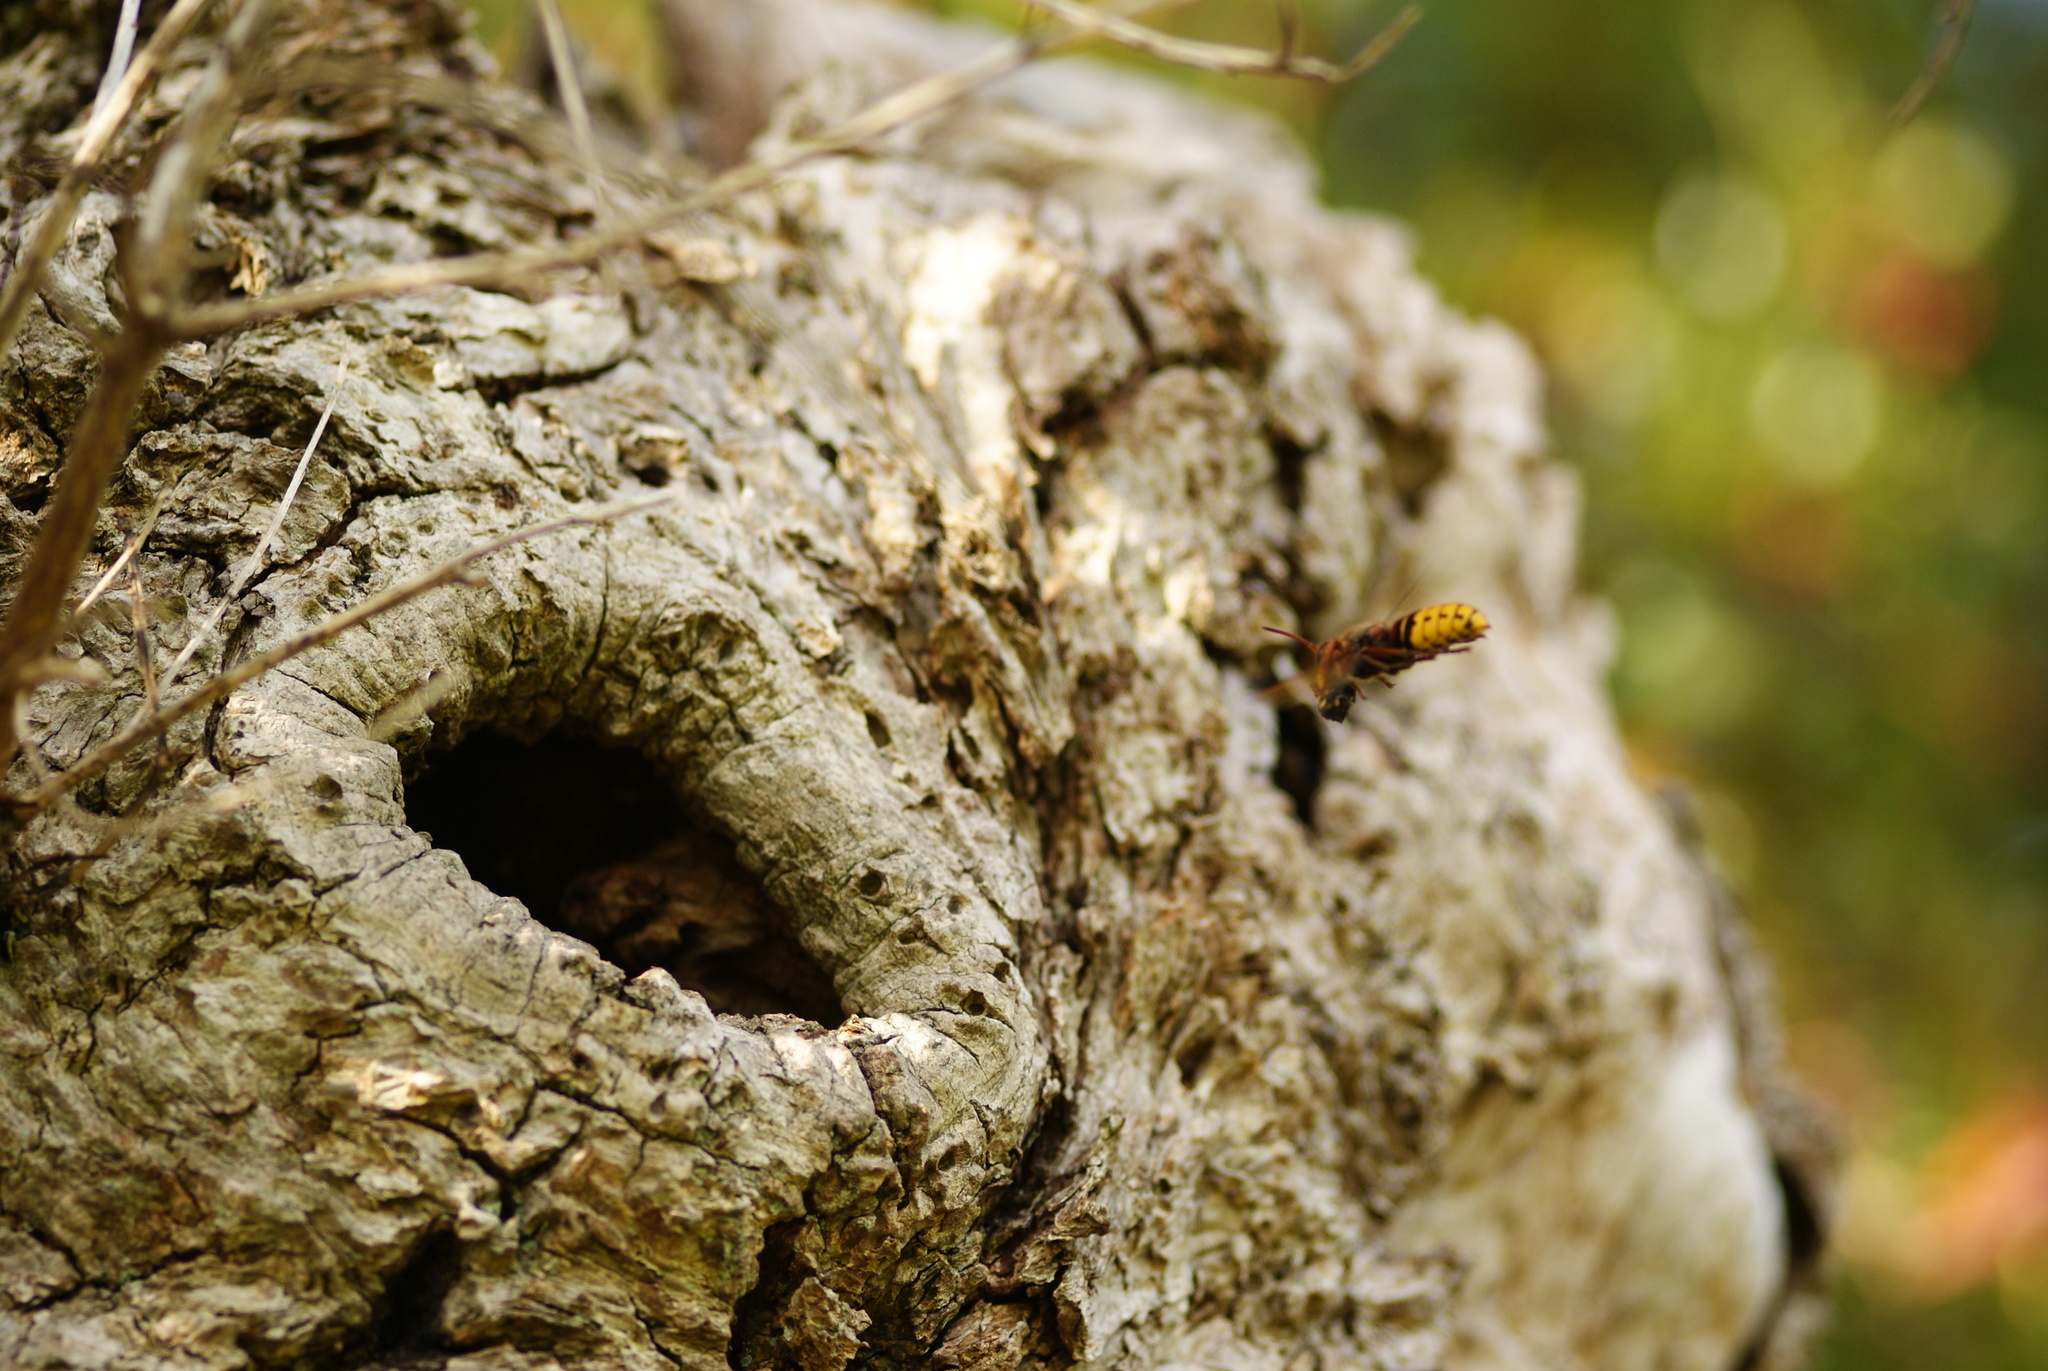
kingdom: Animalia
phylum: Arthropoda
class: Insecta
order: Hymenoptera
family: Vespidae
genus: Vespa
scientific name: Vespa crabro
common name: Hornet
